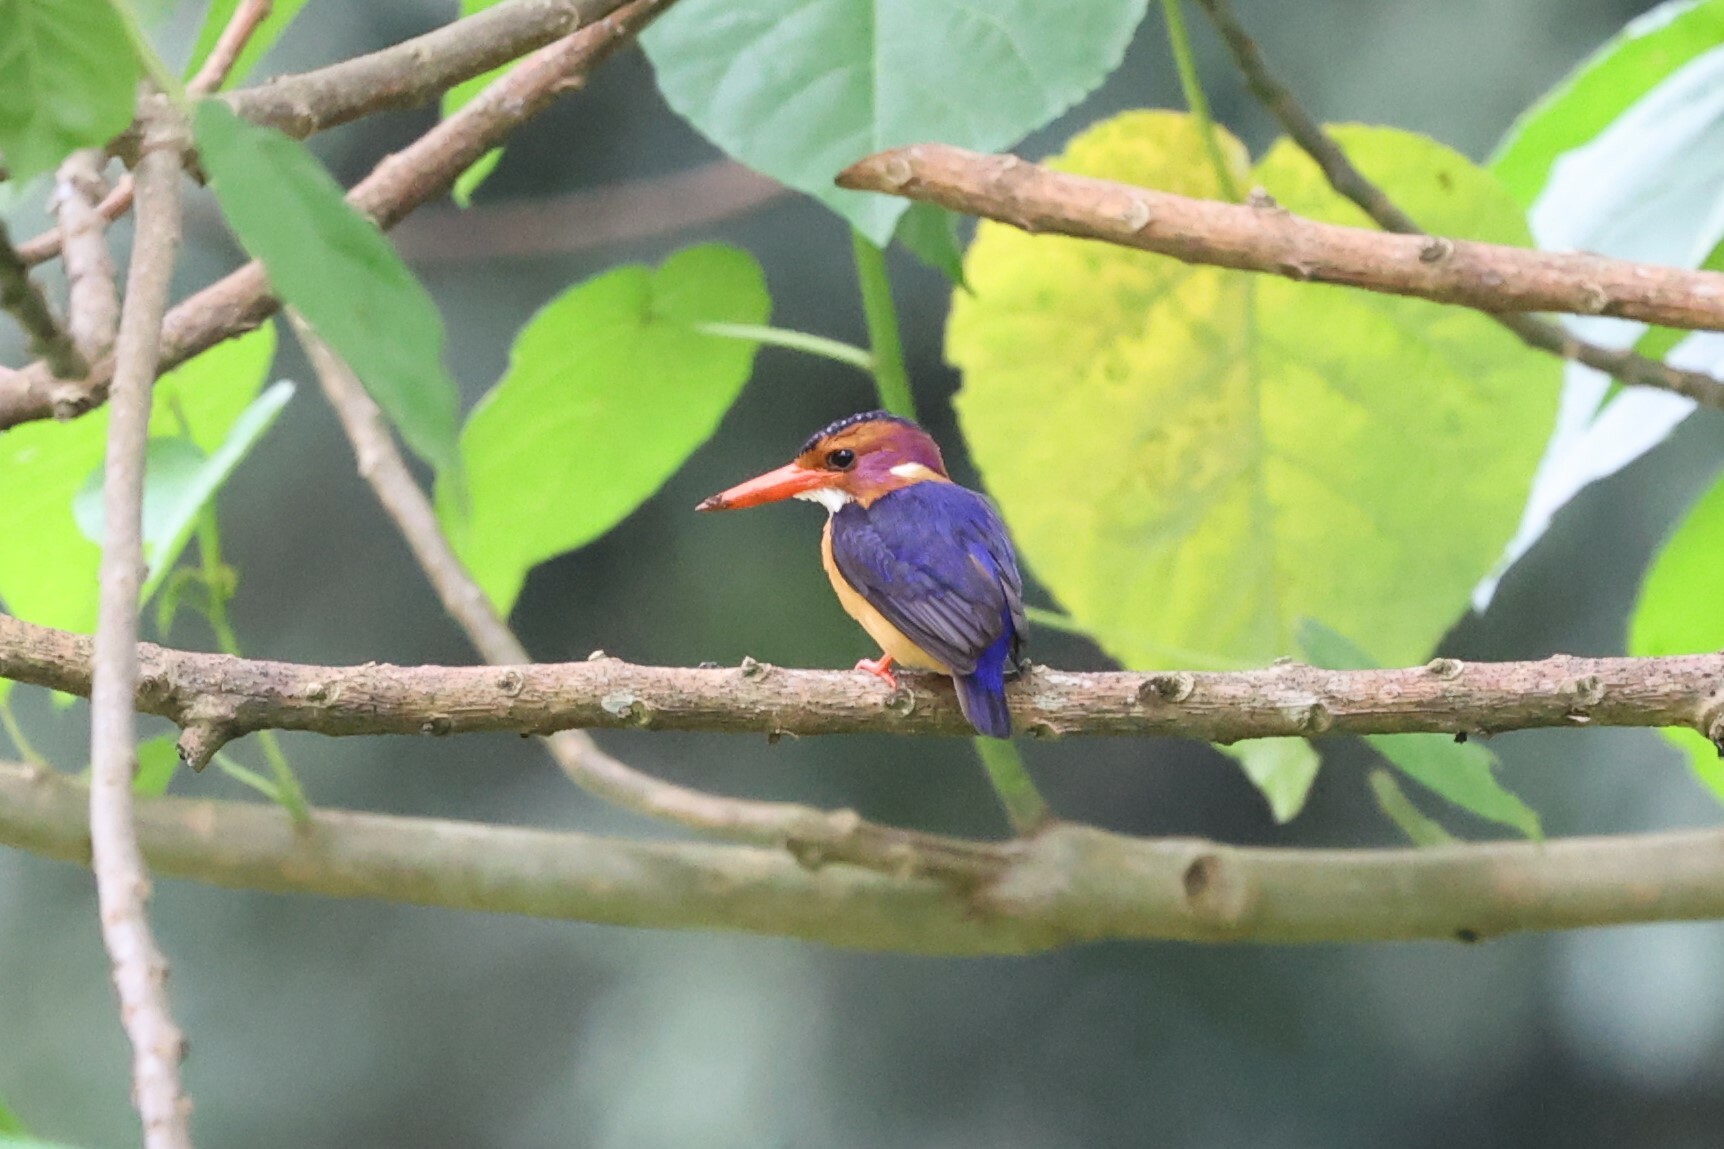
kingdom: Animalia
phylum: Chordata
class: Aves
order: Coraciiformes
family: Alcedinidae
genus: Ispidina
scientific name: Ispidina picta
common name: African pygmy-kingfisher
